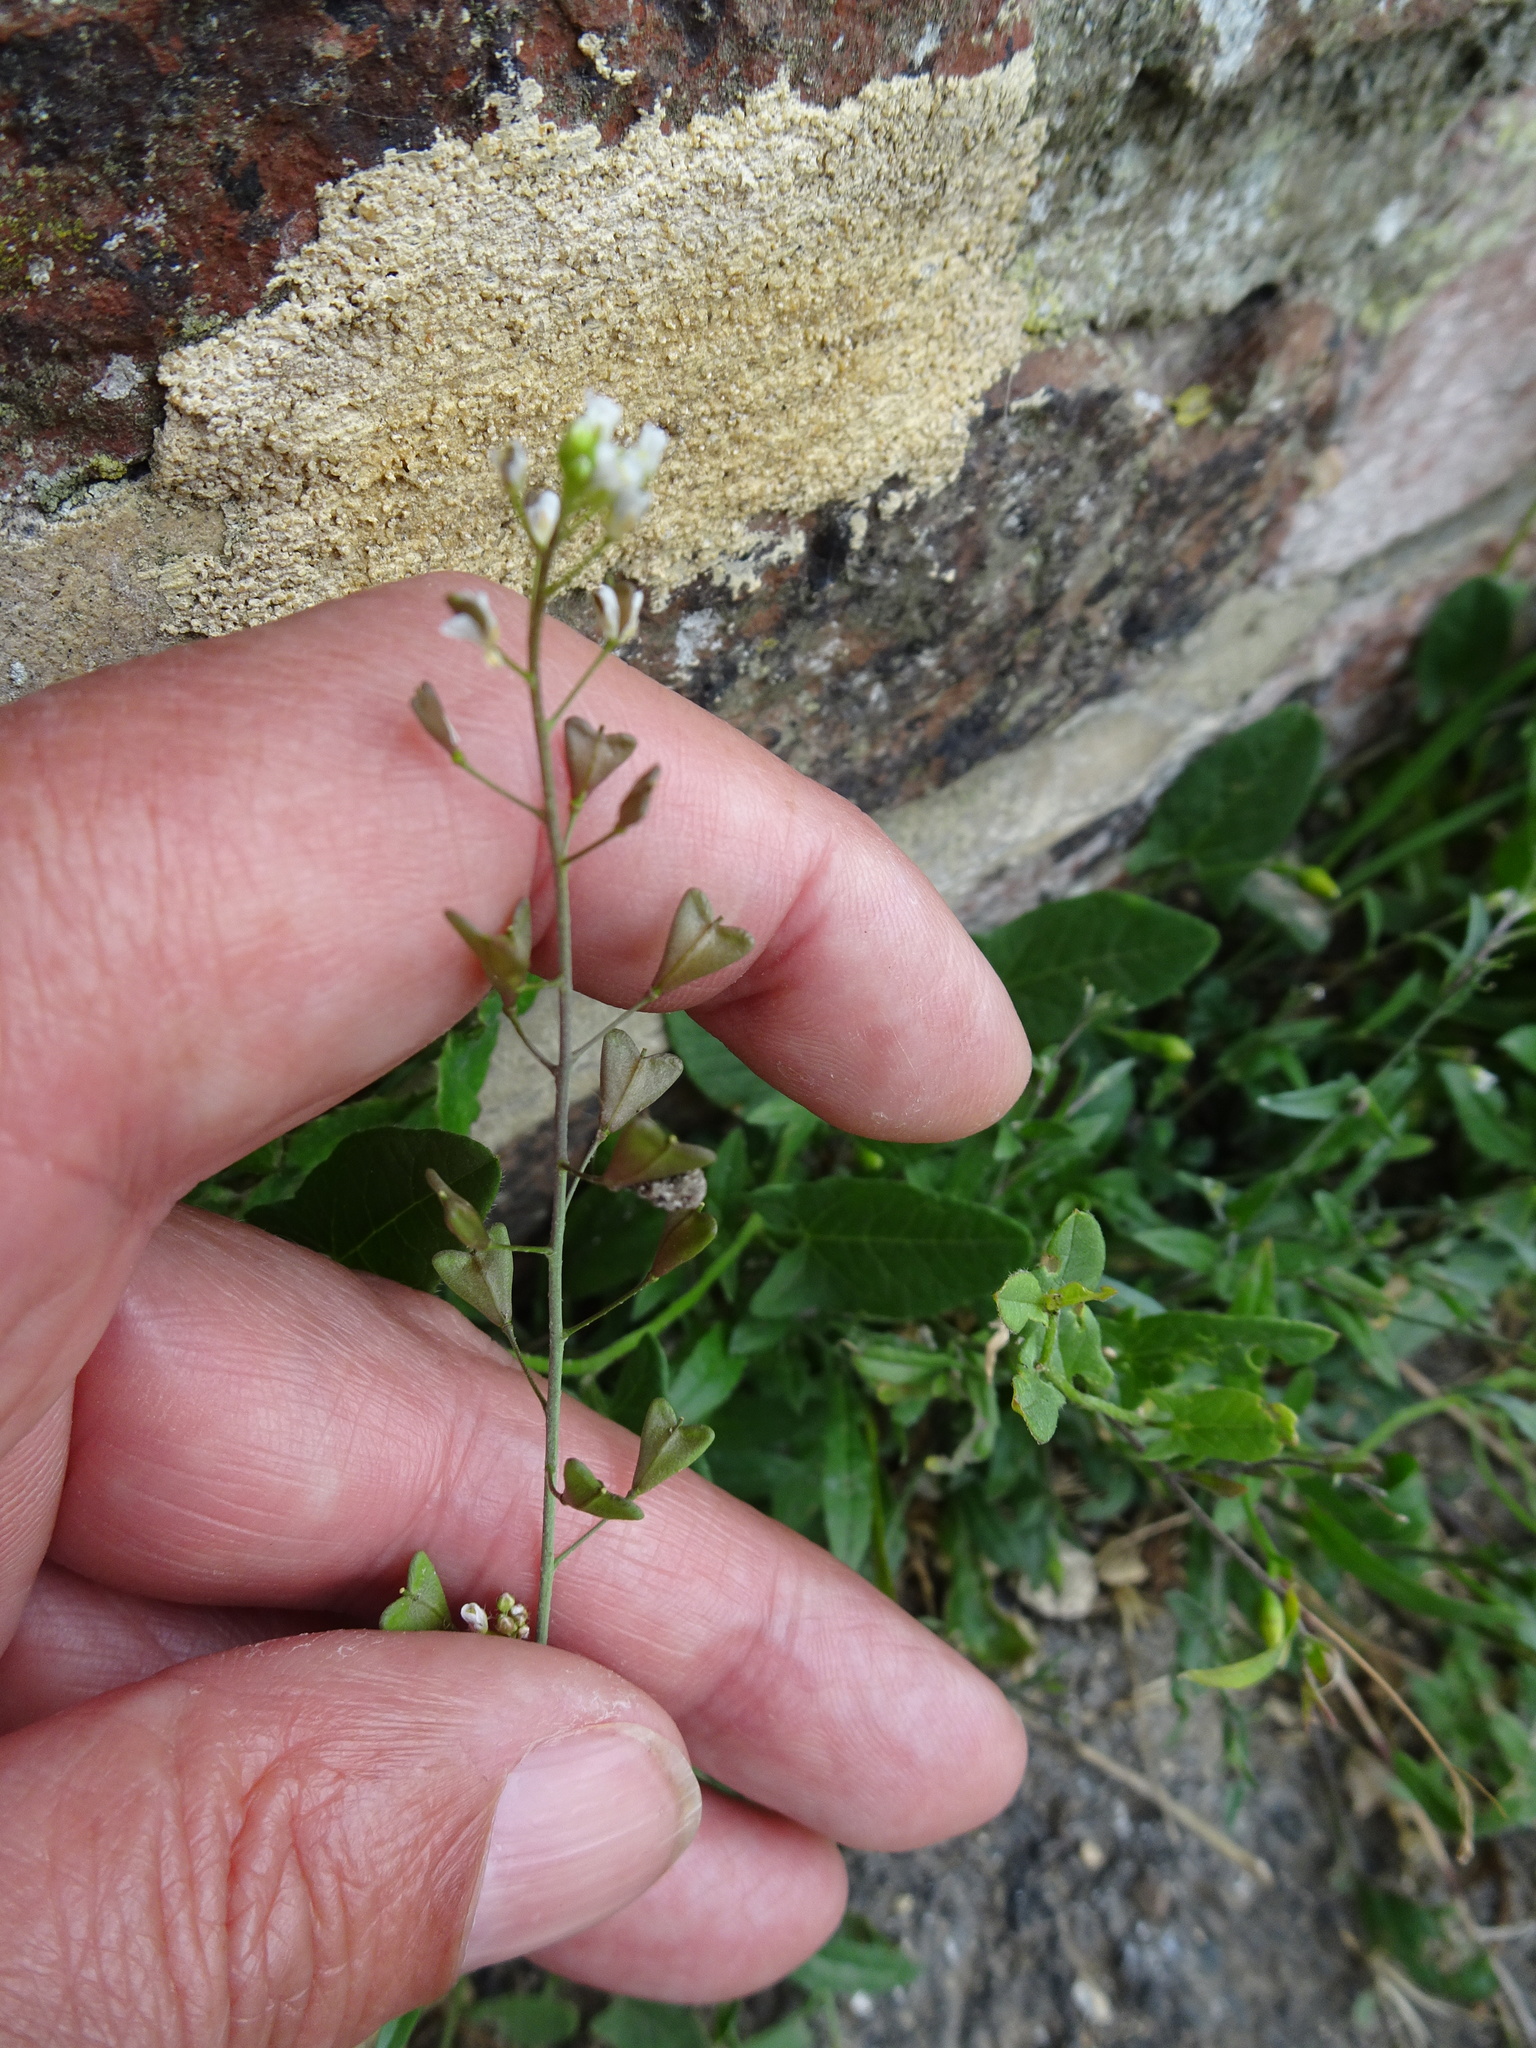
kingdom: Plantae
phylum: Tracheophyta
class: Magnoliopsida
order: Brassicales
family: Brassicaceae
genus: Capsella
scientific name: Capsella bursa-pastoris
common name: Shepherd's purse
